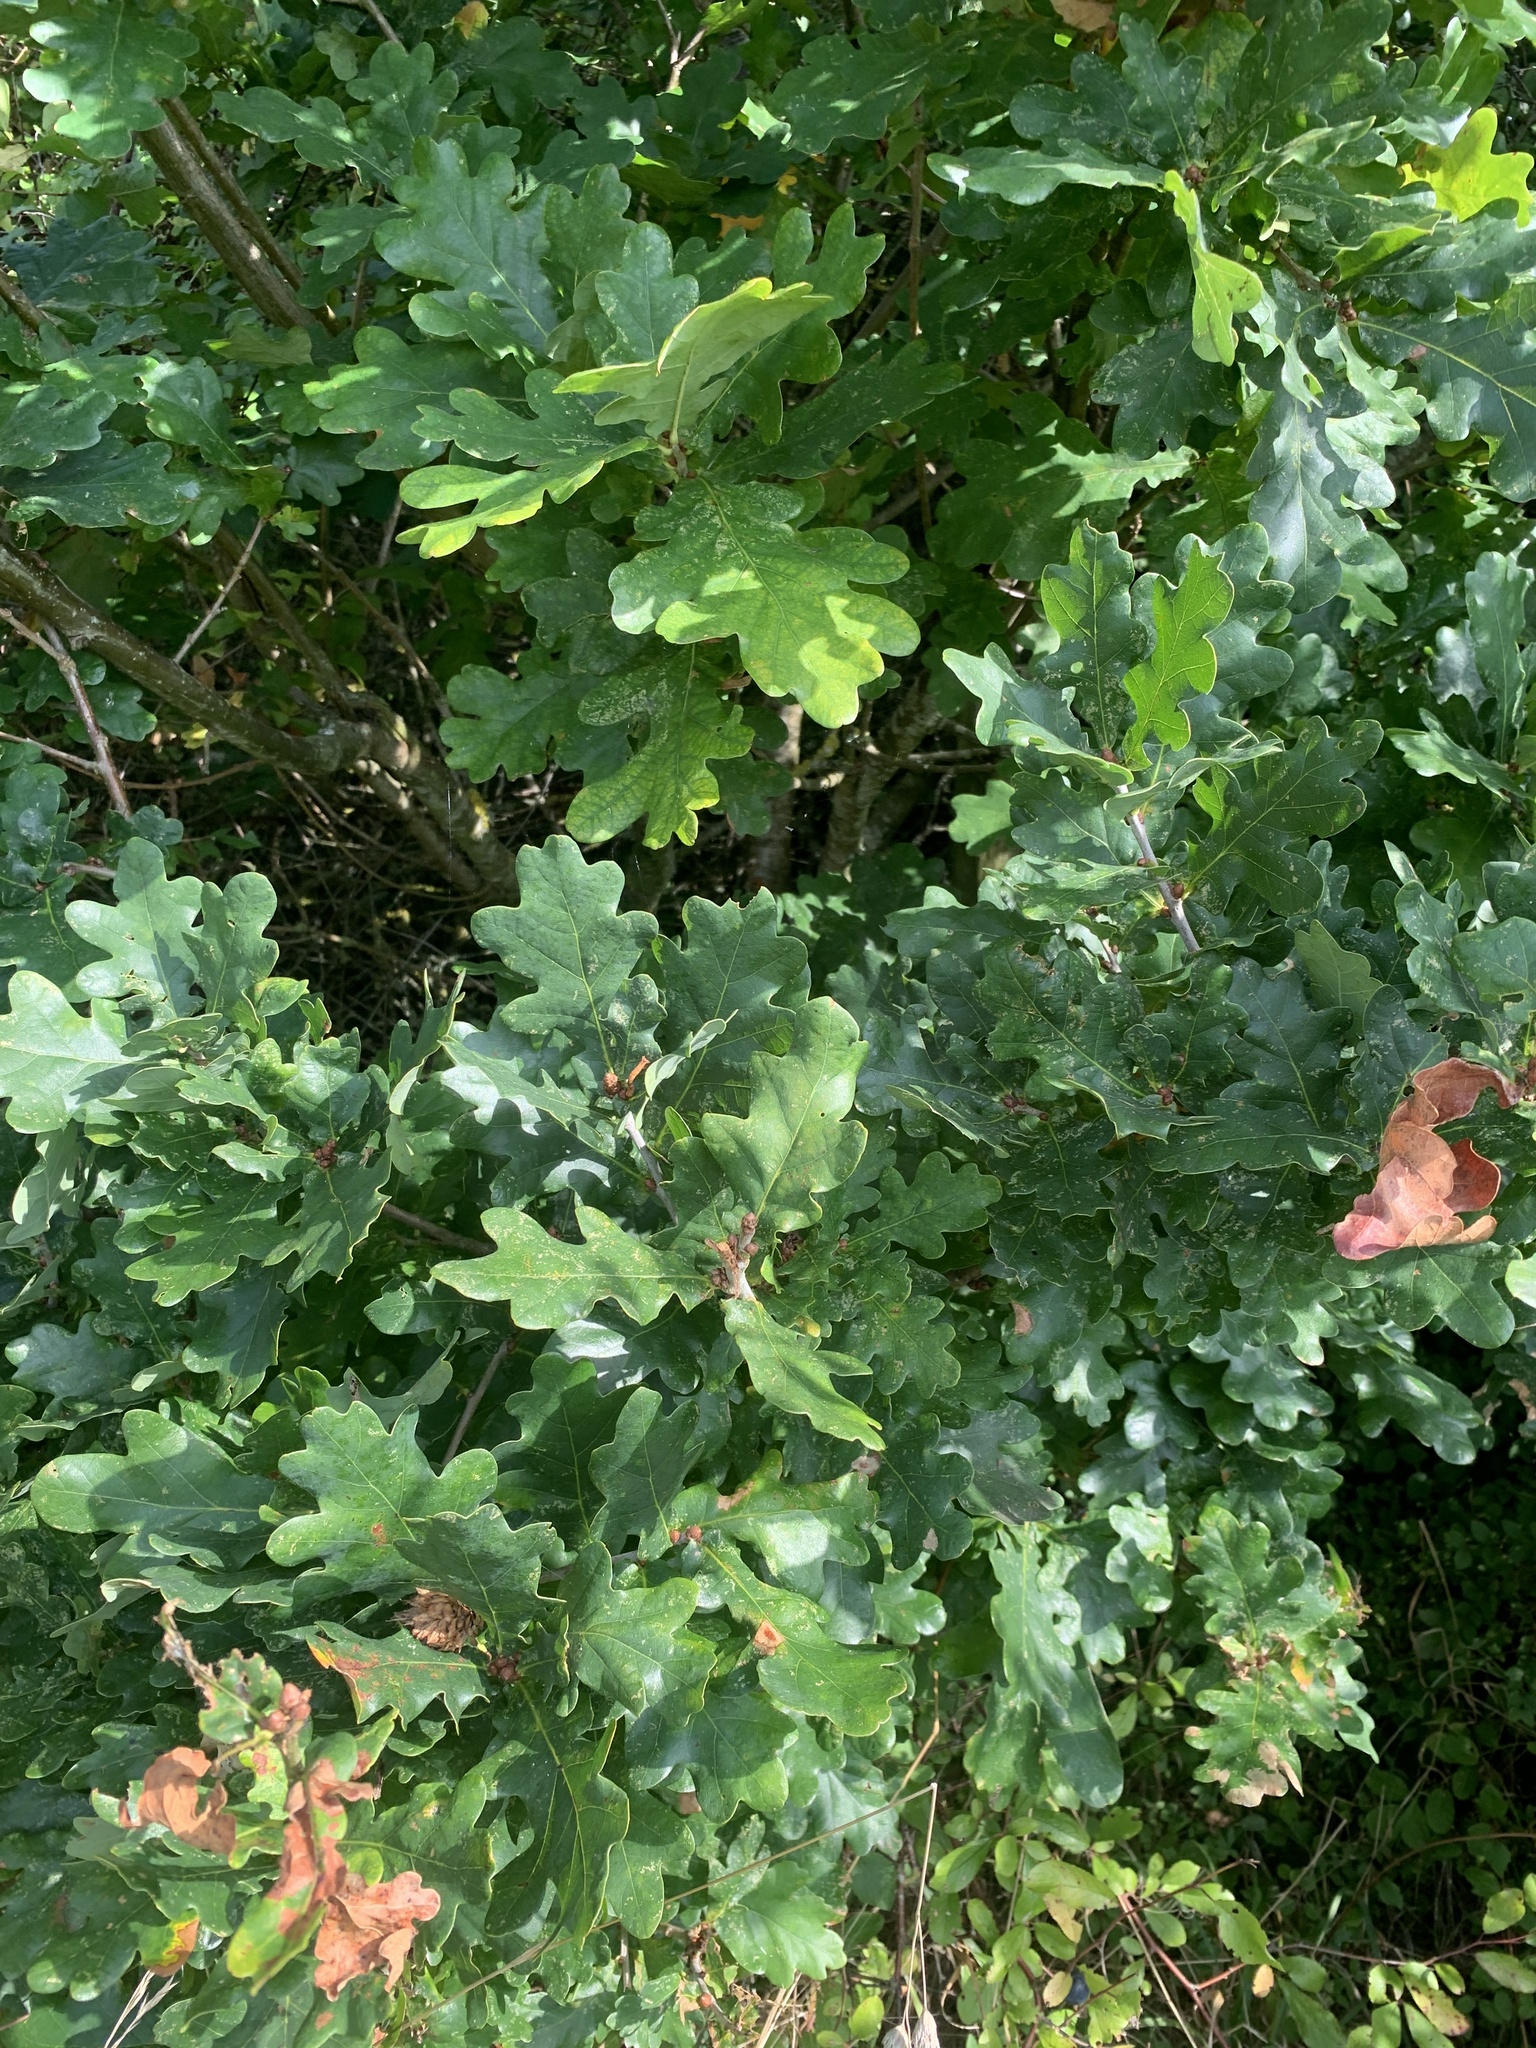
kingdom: Plantae
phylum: Tracheophyta
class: Magnoliopsida
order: Fagales
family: Fagaceae
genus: Quercus
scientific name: Quercus robur
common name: Pedunculate oak
